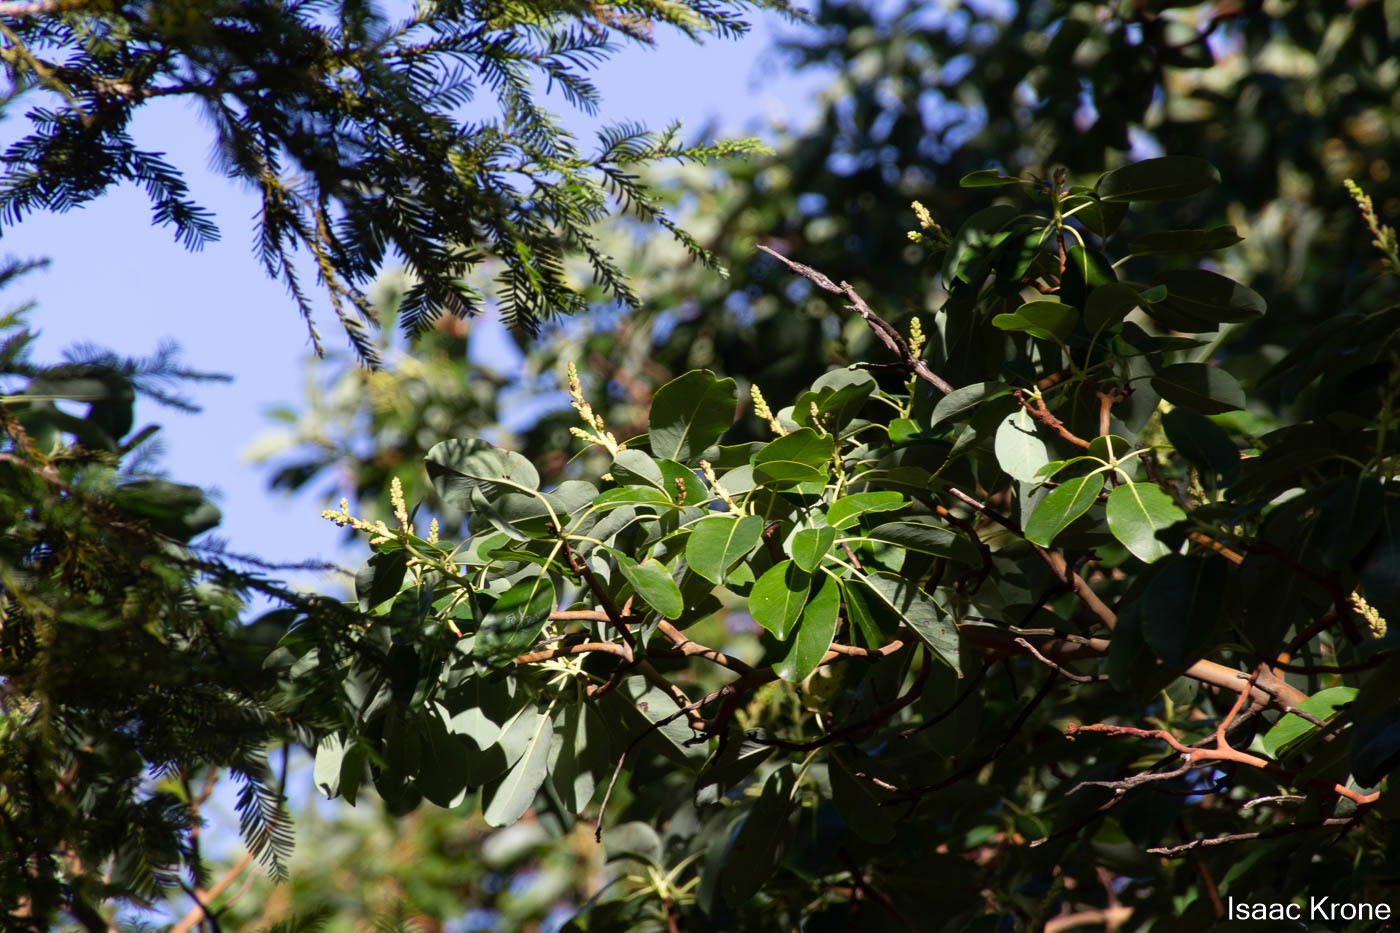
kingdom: Plantae
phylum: Tracheophyta
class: Magnoliopsida
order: Ericales
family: Ericaceae
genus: Arbutus
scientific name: Arbutus menziesii
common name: Pacific madrone
